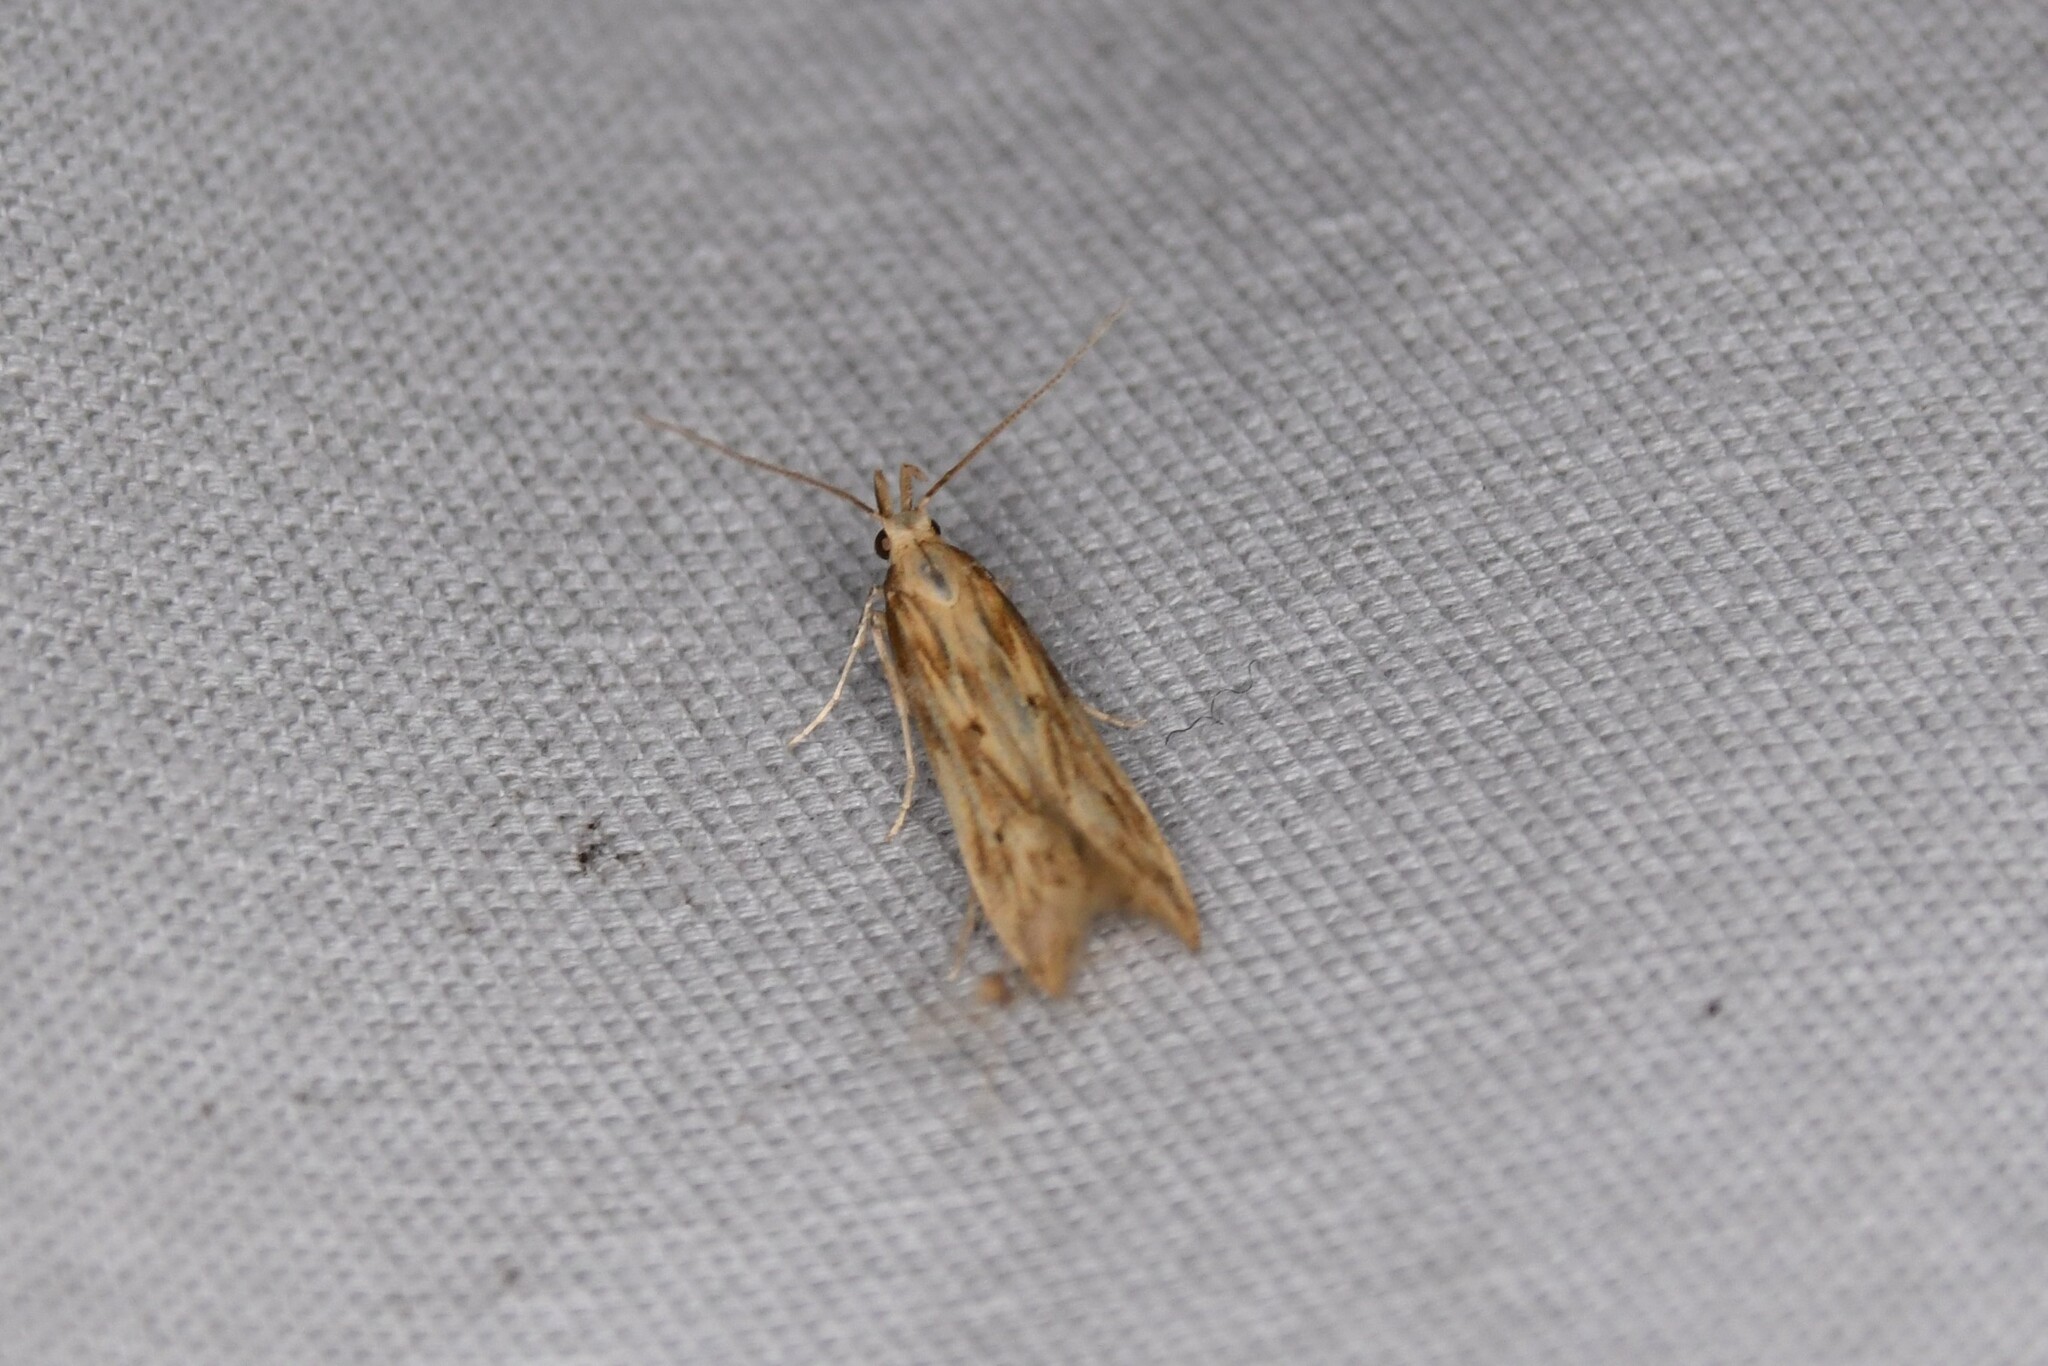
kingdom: Animalia
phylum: Arthropoda
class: Insecta
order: Lepidoptera
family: Gelechiidae
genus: Metzneria
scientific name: Metzneria lappella
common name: Burdock neb
